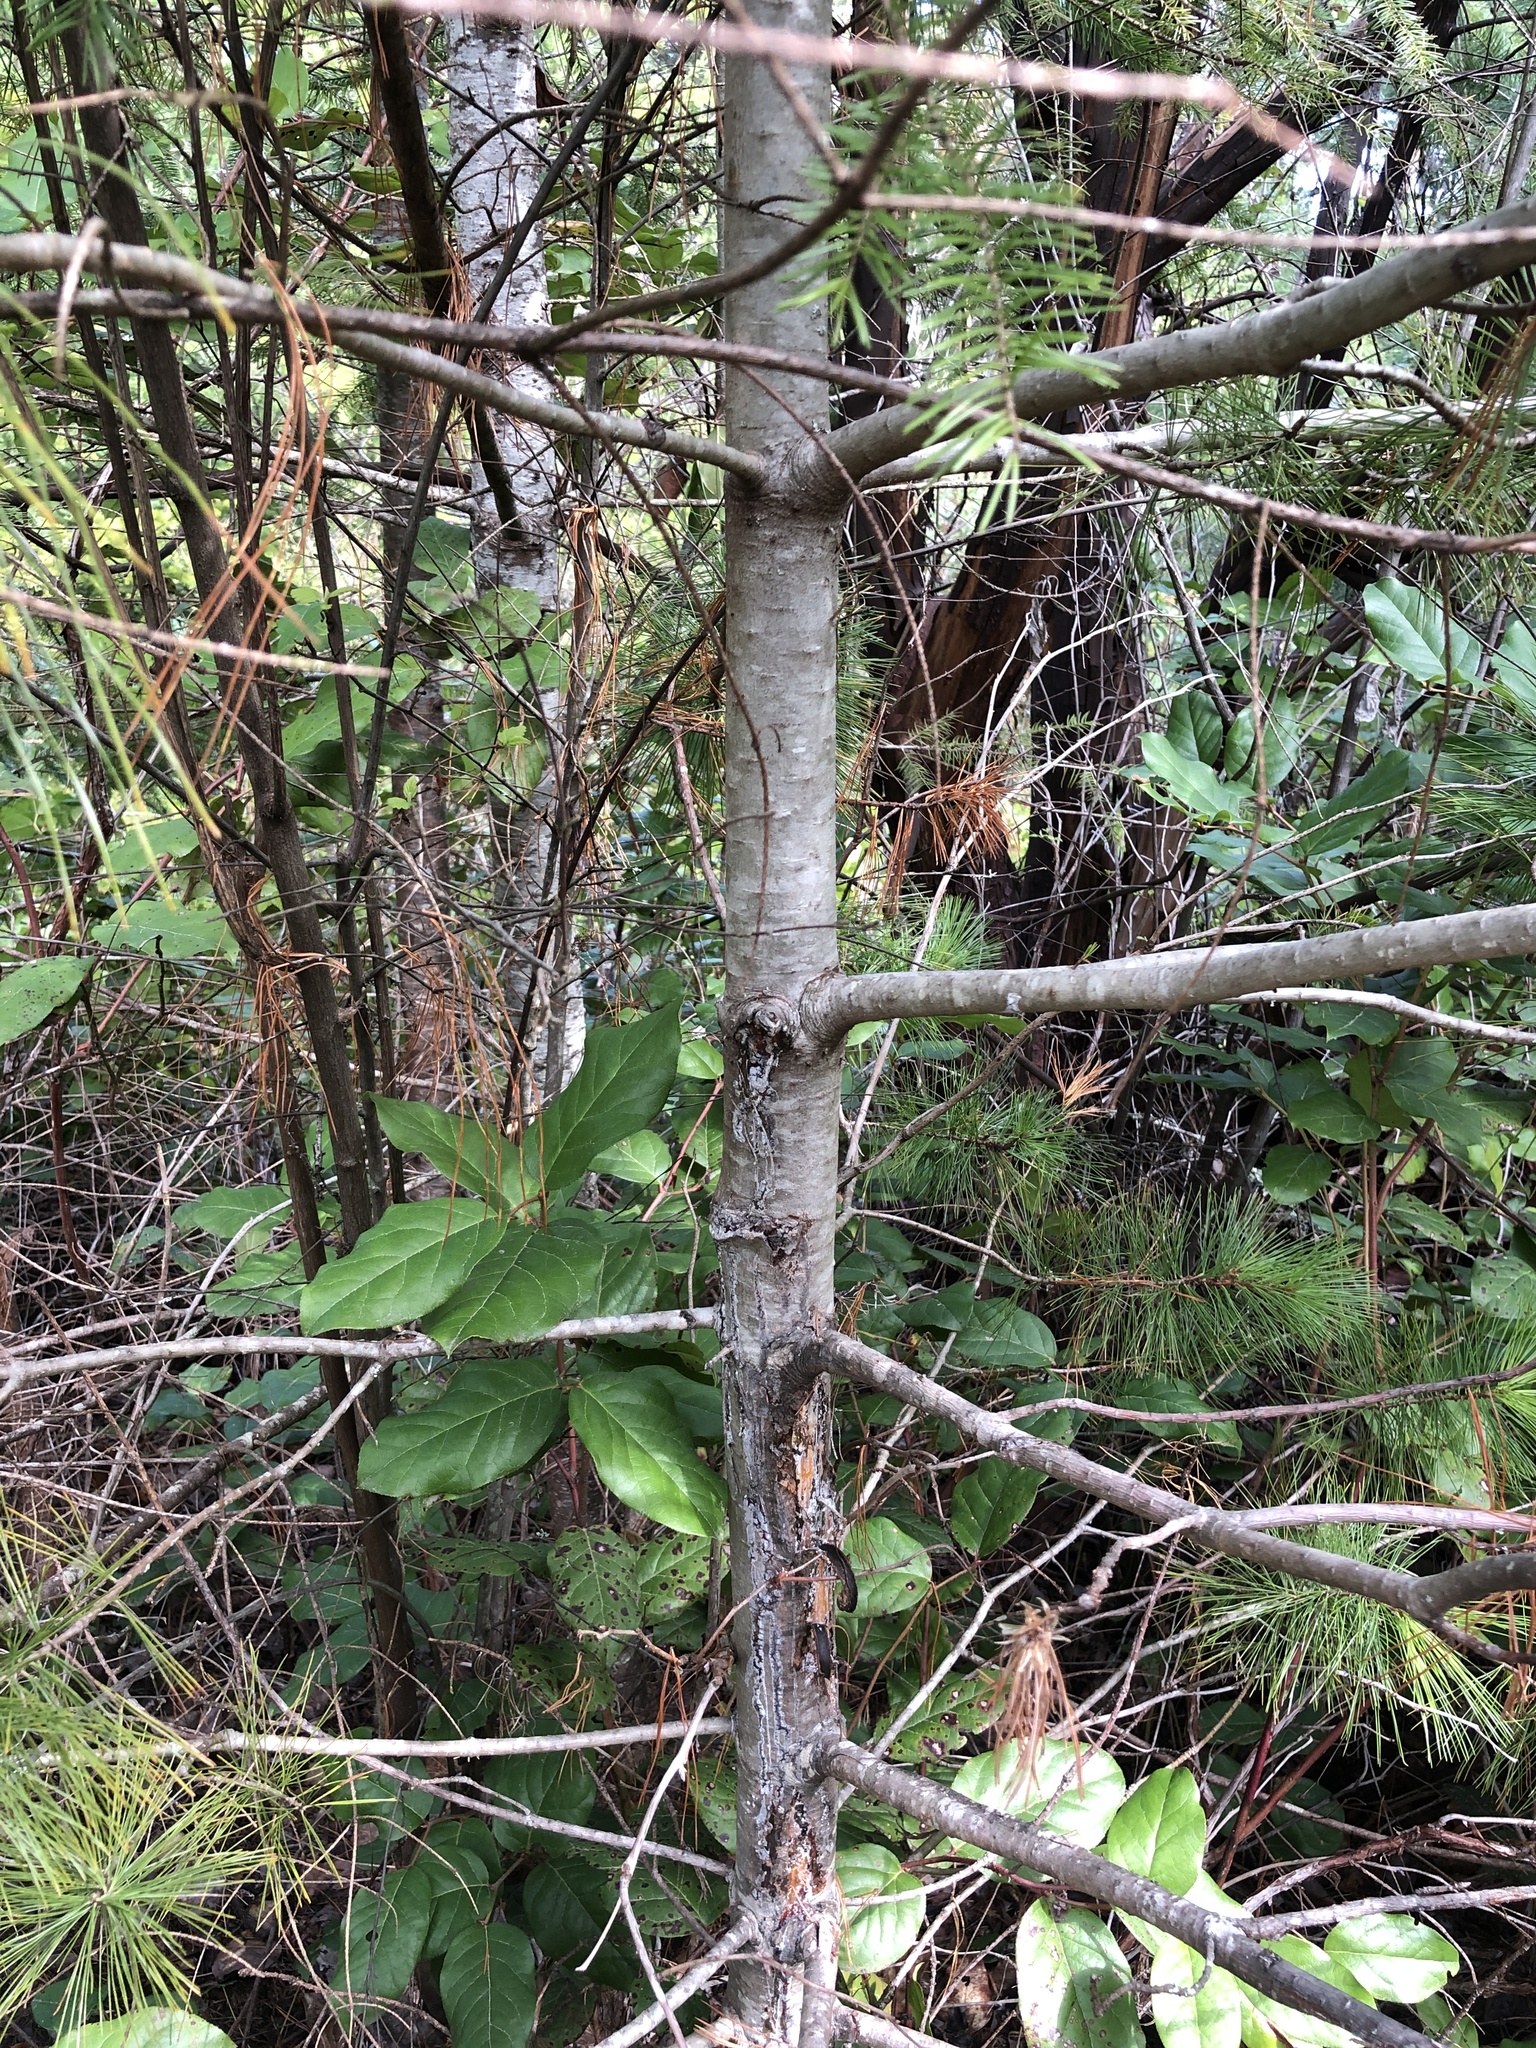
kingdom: Plantae
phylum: Tracheophyta
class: Pinopsida
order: Pinales
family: Pinaceae
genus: Pinus
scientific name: Pinus monticola
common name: Western white pine
